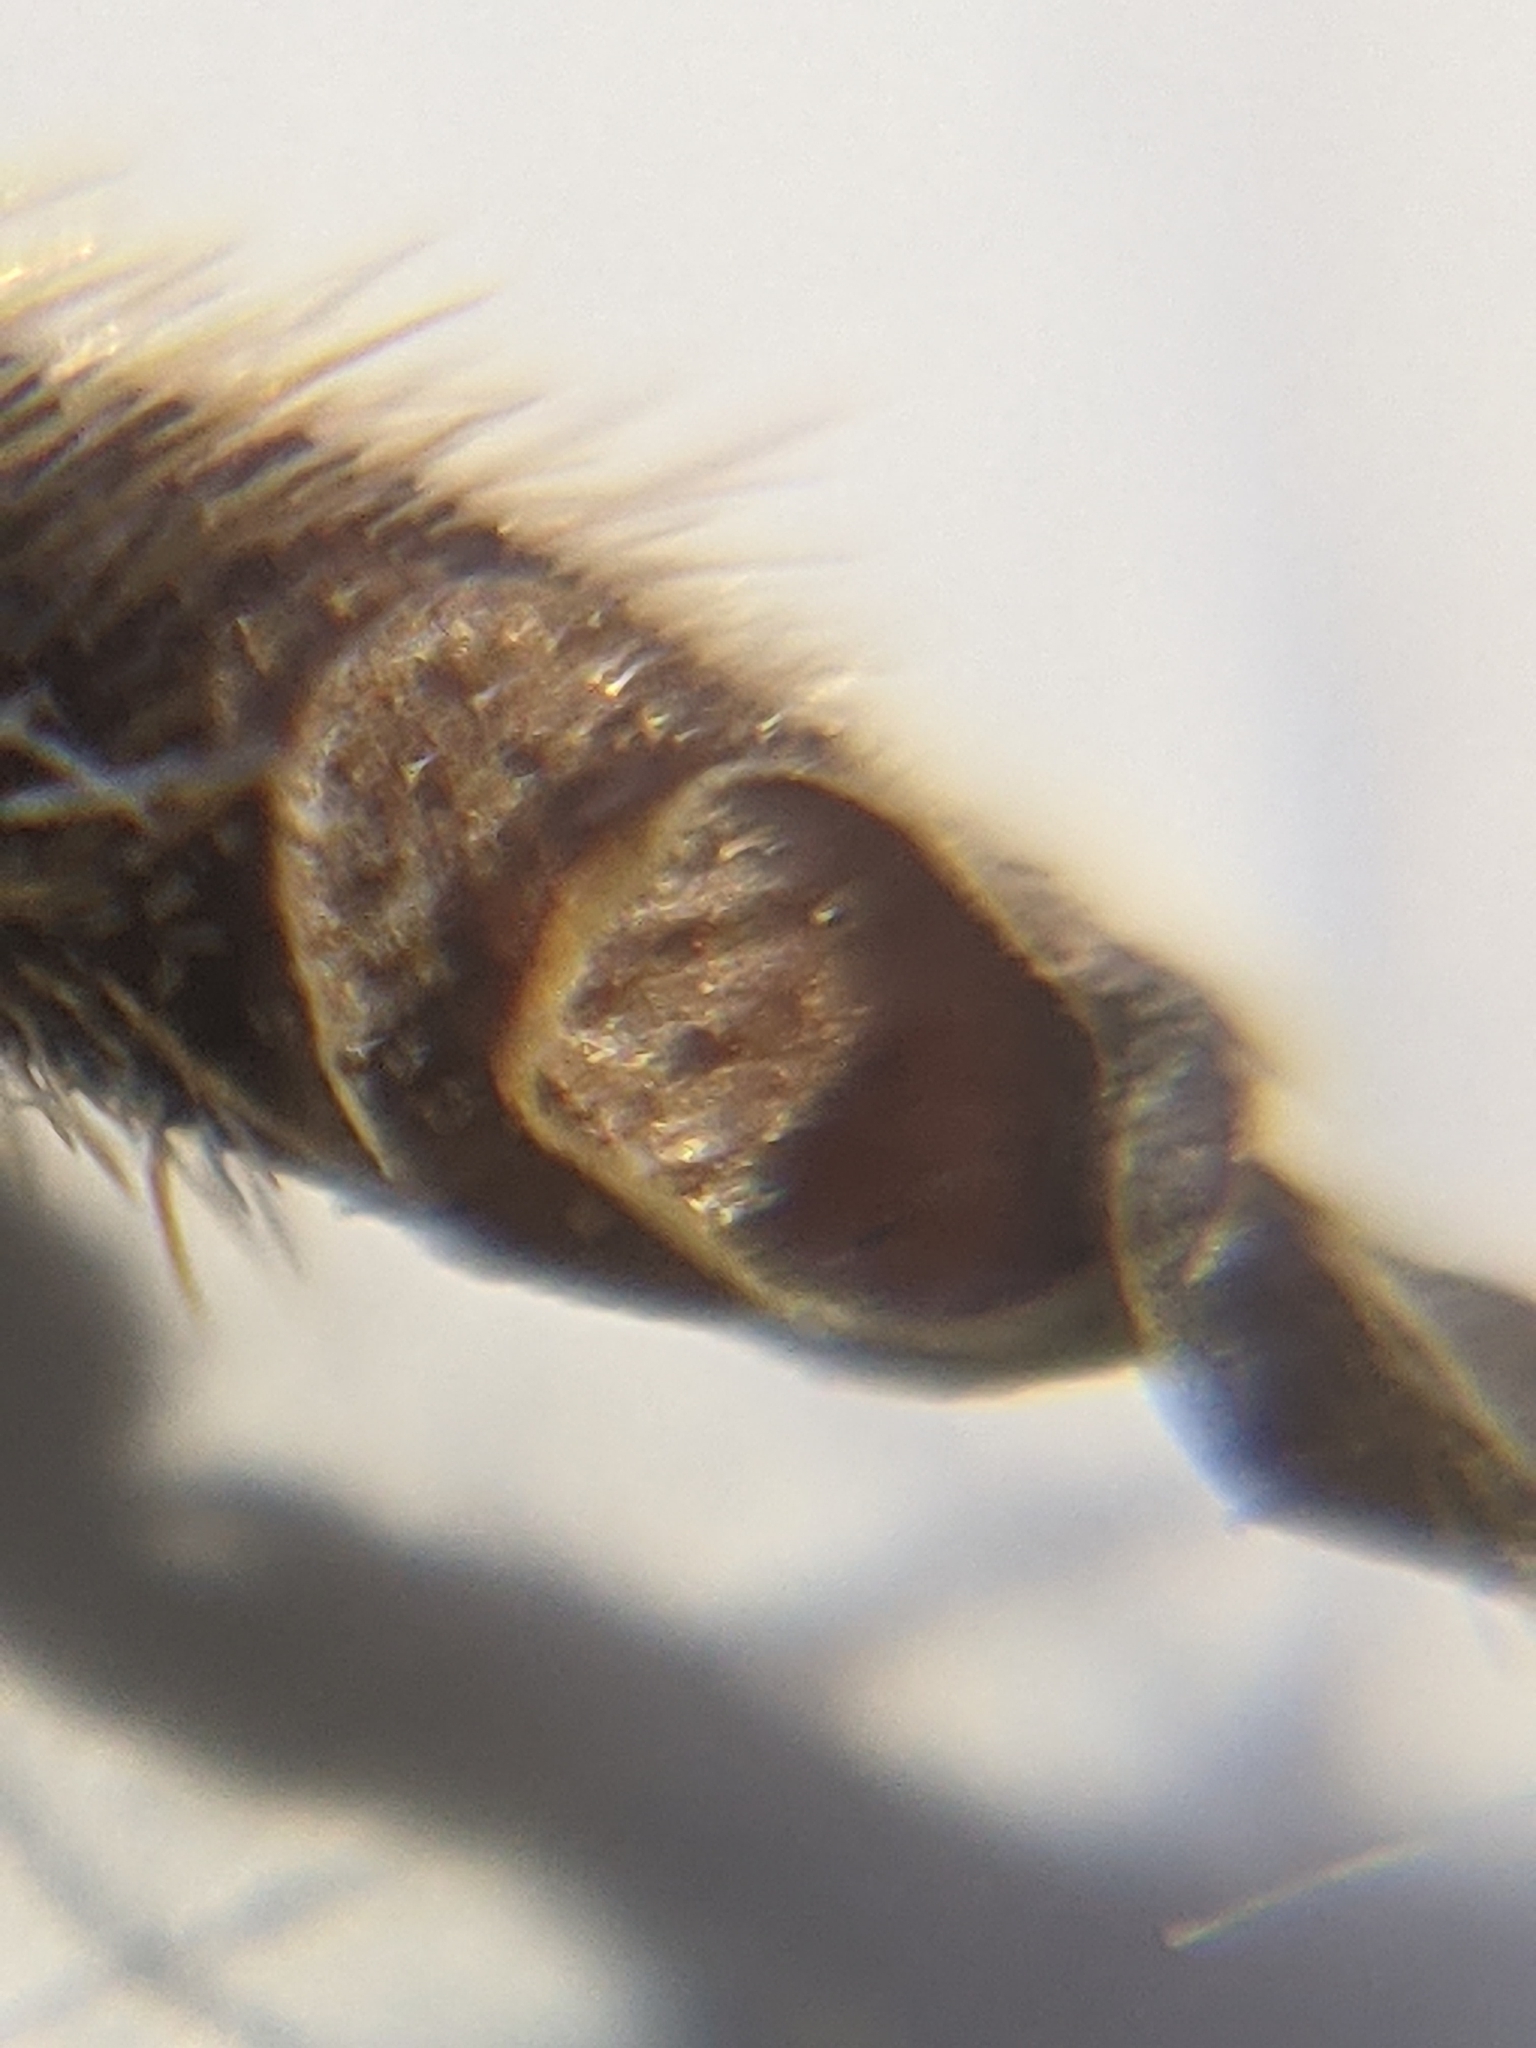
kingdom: Plantae
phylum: Tracheophyta
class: Magnoliopsida
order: Geraniales
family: Geraniaceae
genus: Erodium
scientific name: Erodium moschatum
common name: Musk stork's-bill
